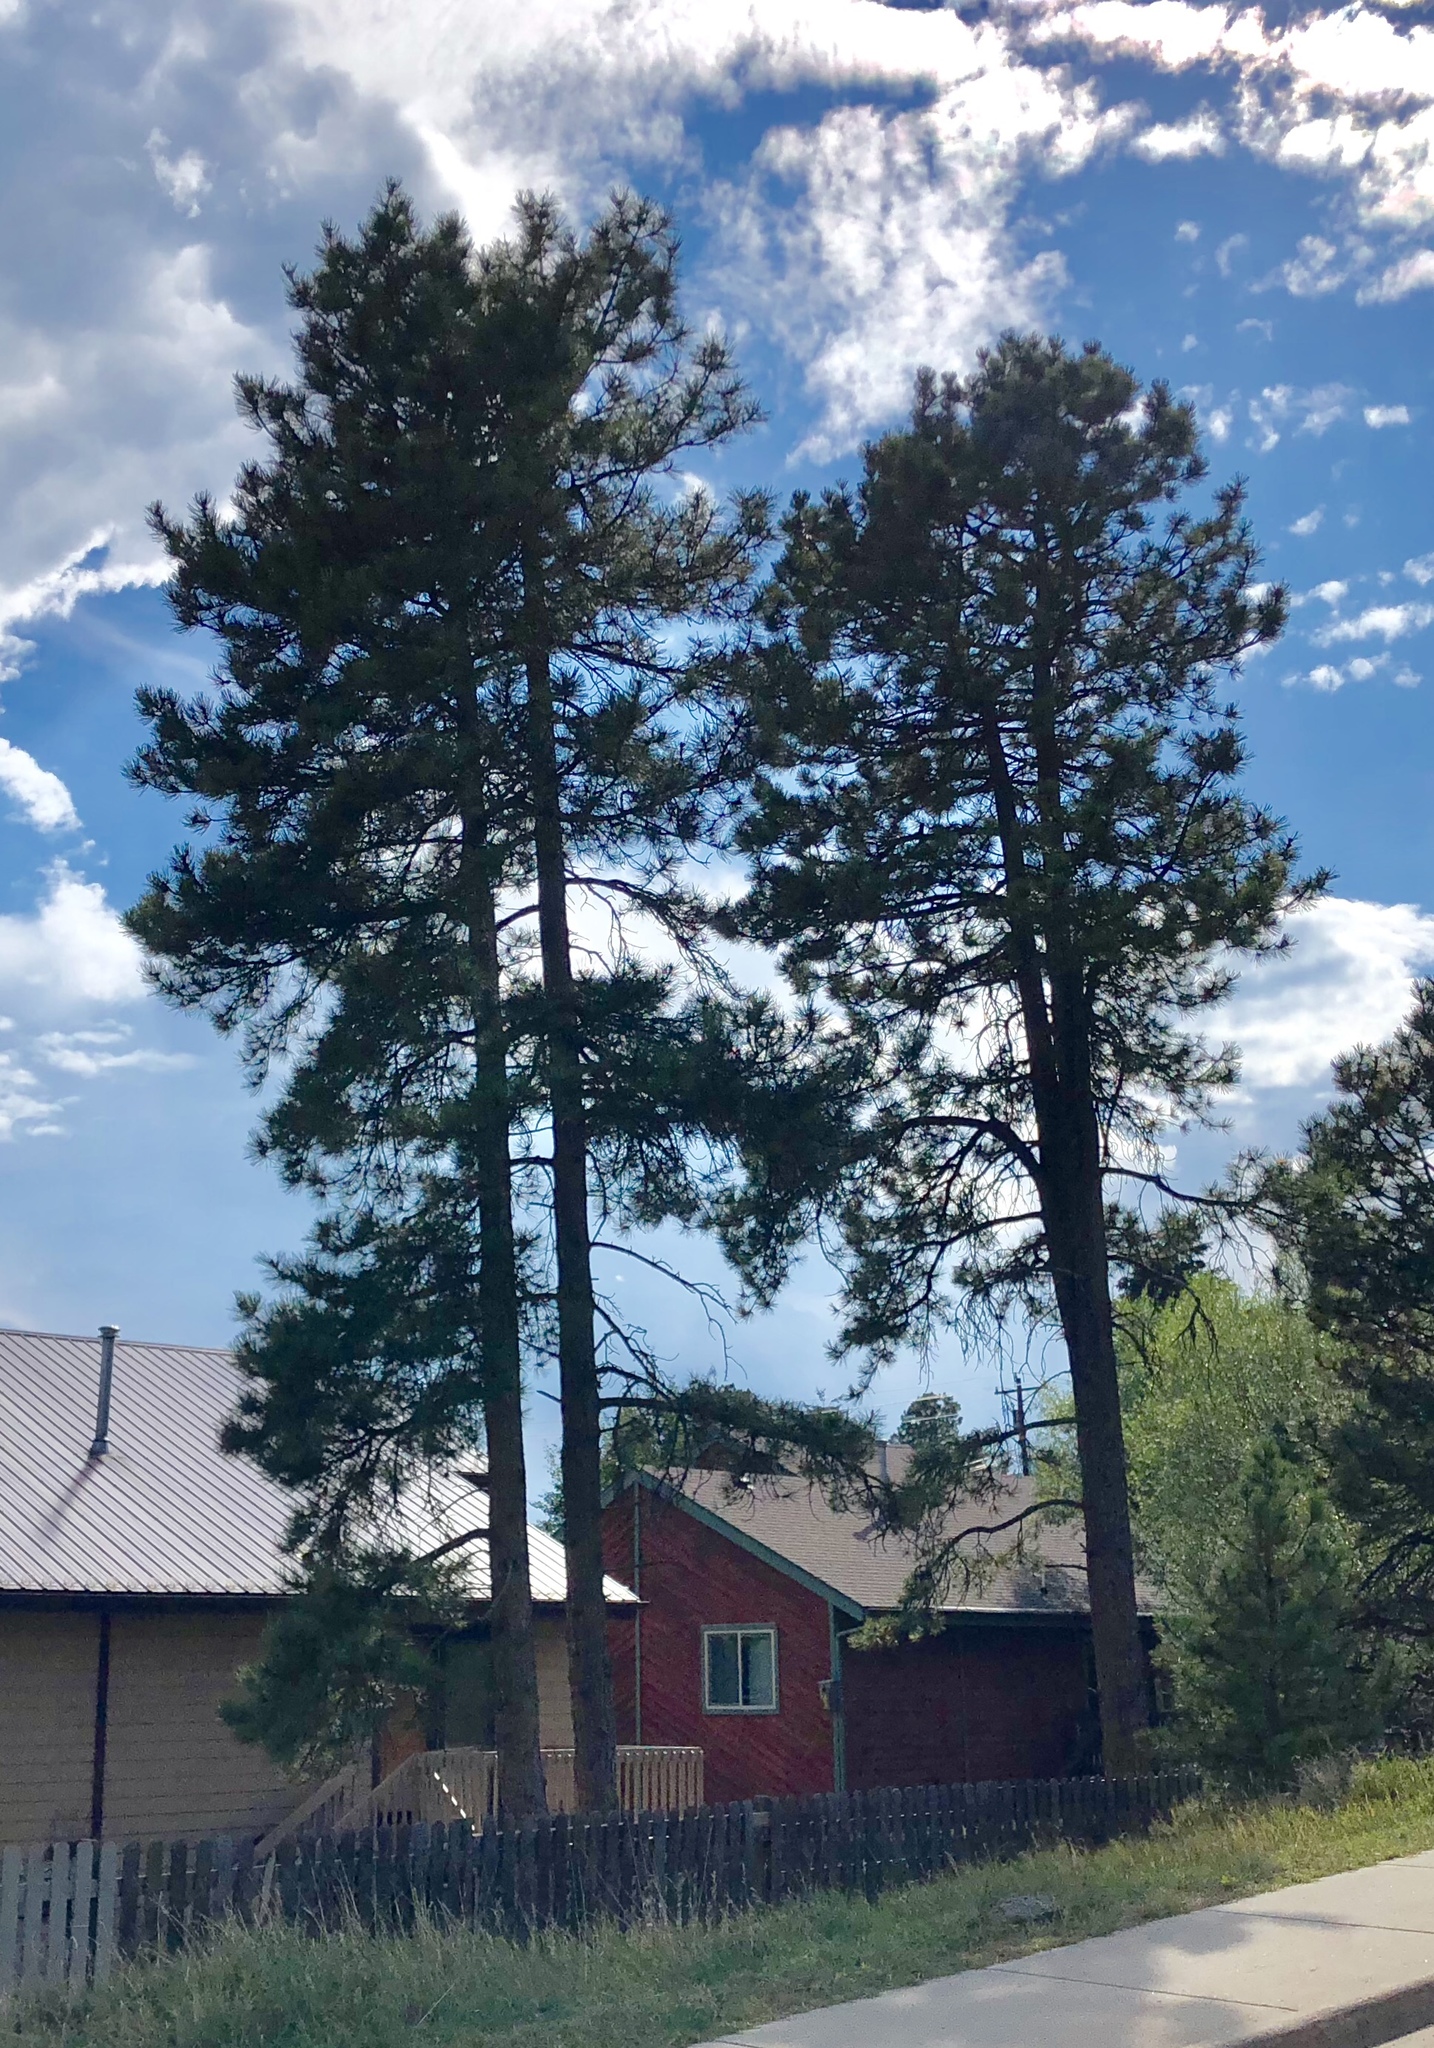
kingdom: Plantae
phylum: Tracheophyta
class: Pinopsida
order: Pinales
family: Pinaceae
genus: Pinus
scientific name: Pinus ponderosa
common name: Western yellow-pine
